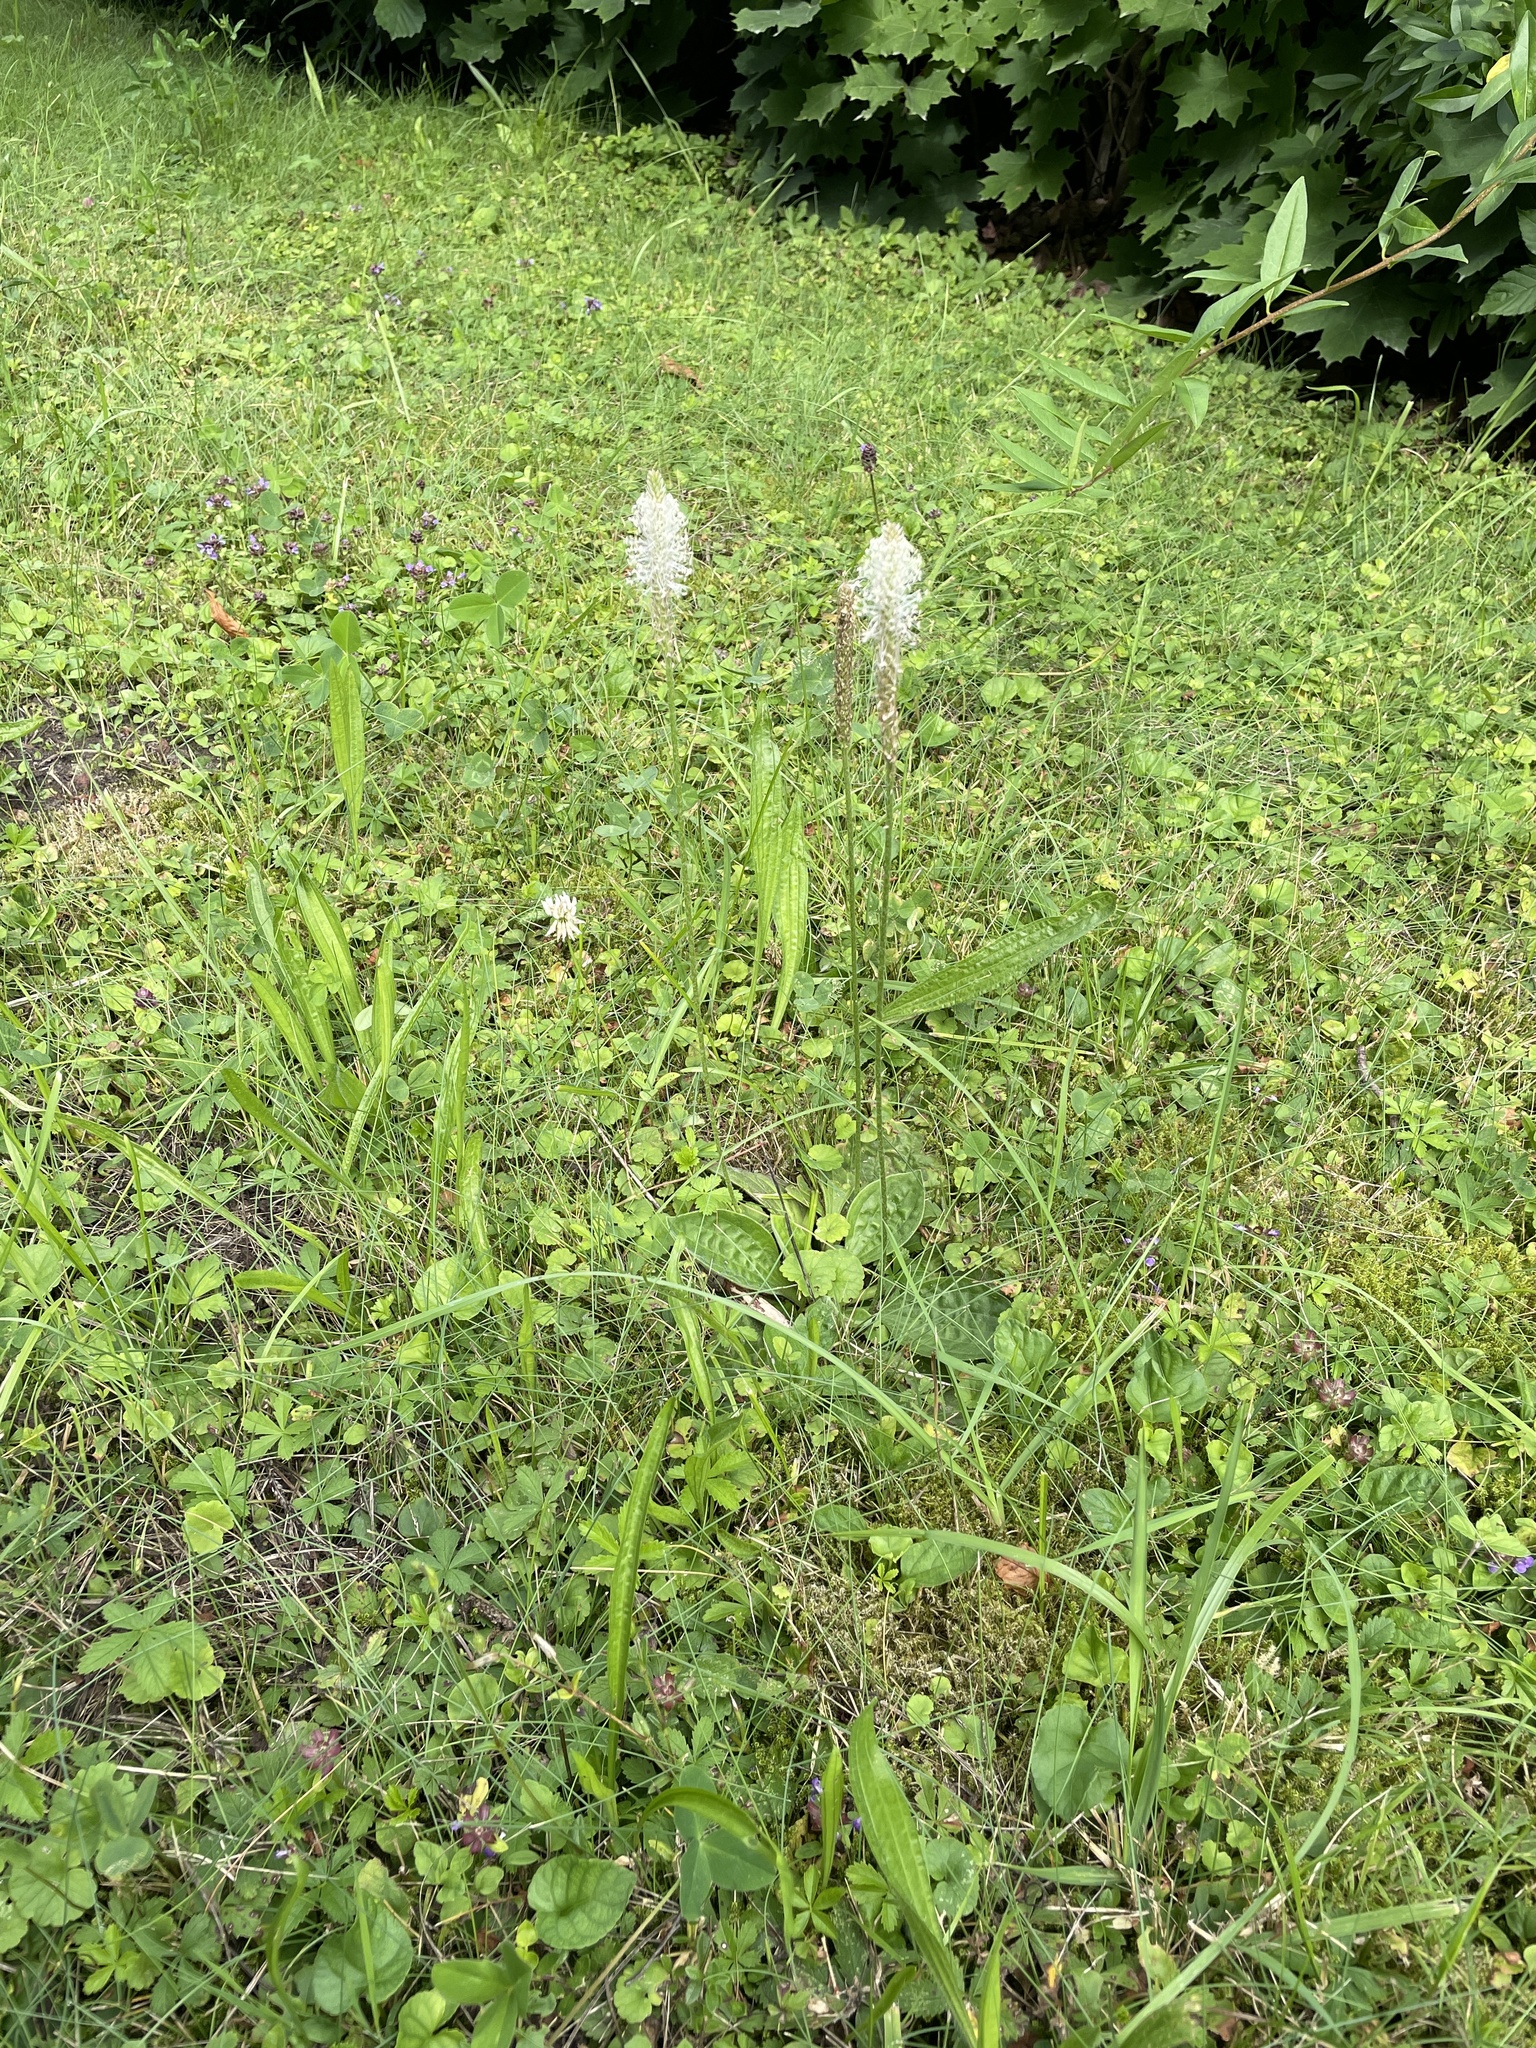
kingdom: Plantae
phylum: Tracheophyta
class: Magnoliopsida
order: Lamiales
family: Plantaginaceae
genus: Plantago
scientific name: Plantago media
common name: Hoary plantain
